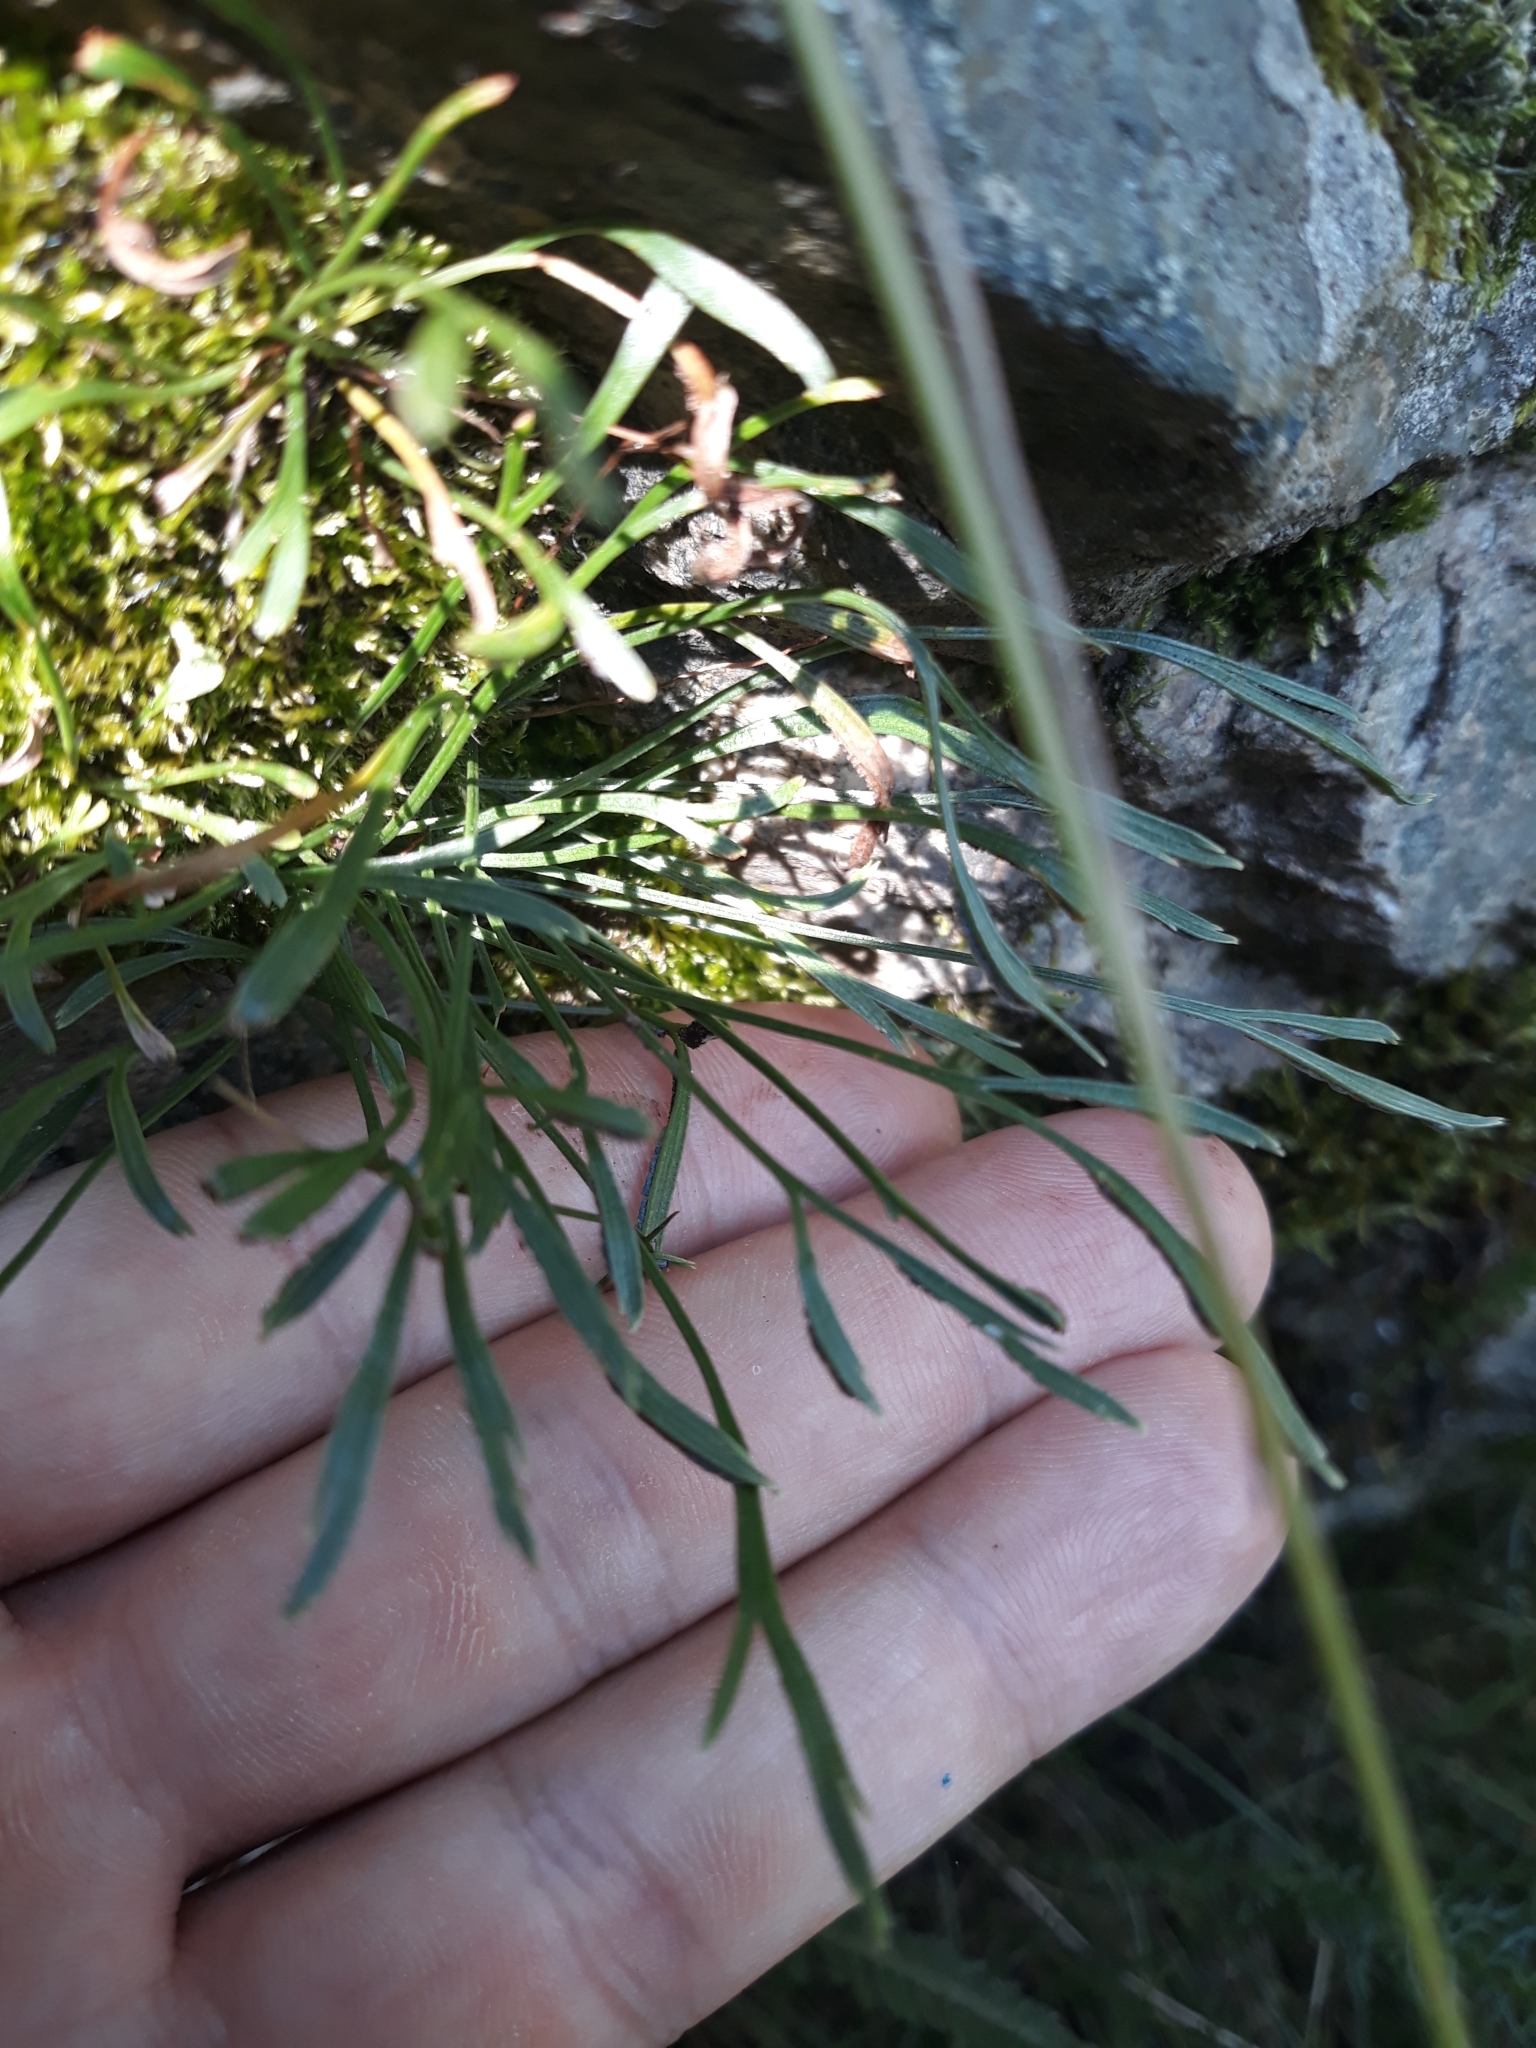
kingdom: Plantae
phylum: Tracheophyta
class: Polypodiopsida
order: Polypodiales
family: Aspleniaceae
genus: Asplenium
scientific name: Asplenium septentrionale
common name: Forked spleenwort
